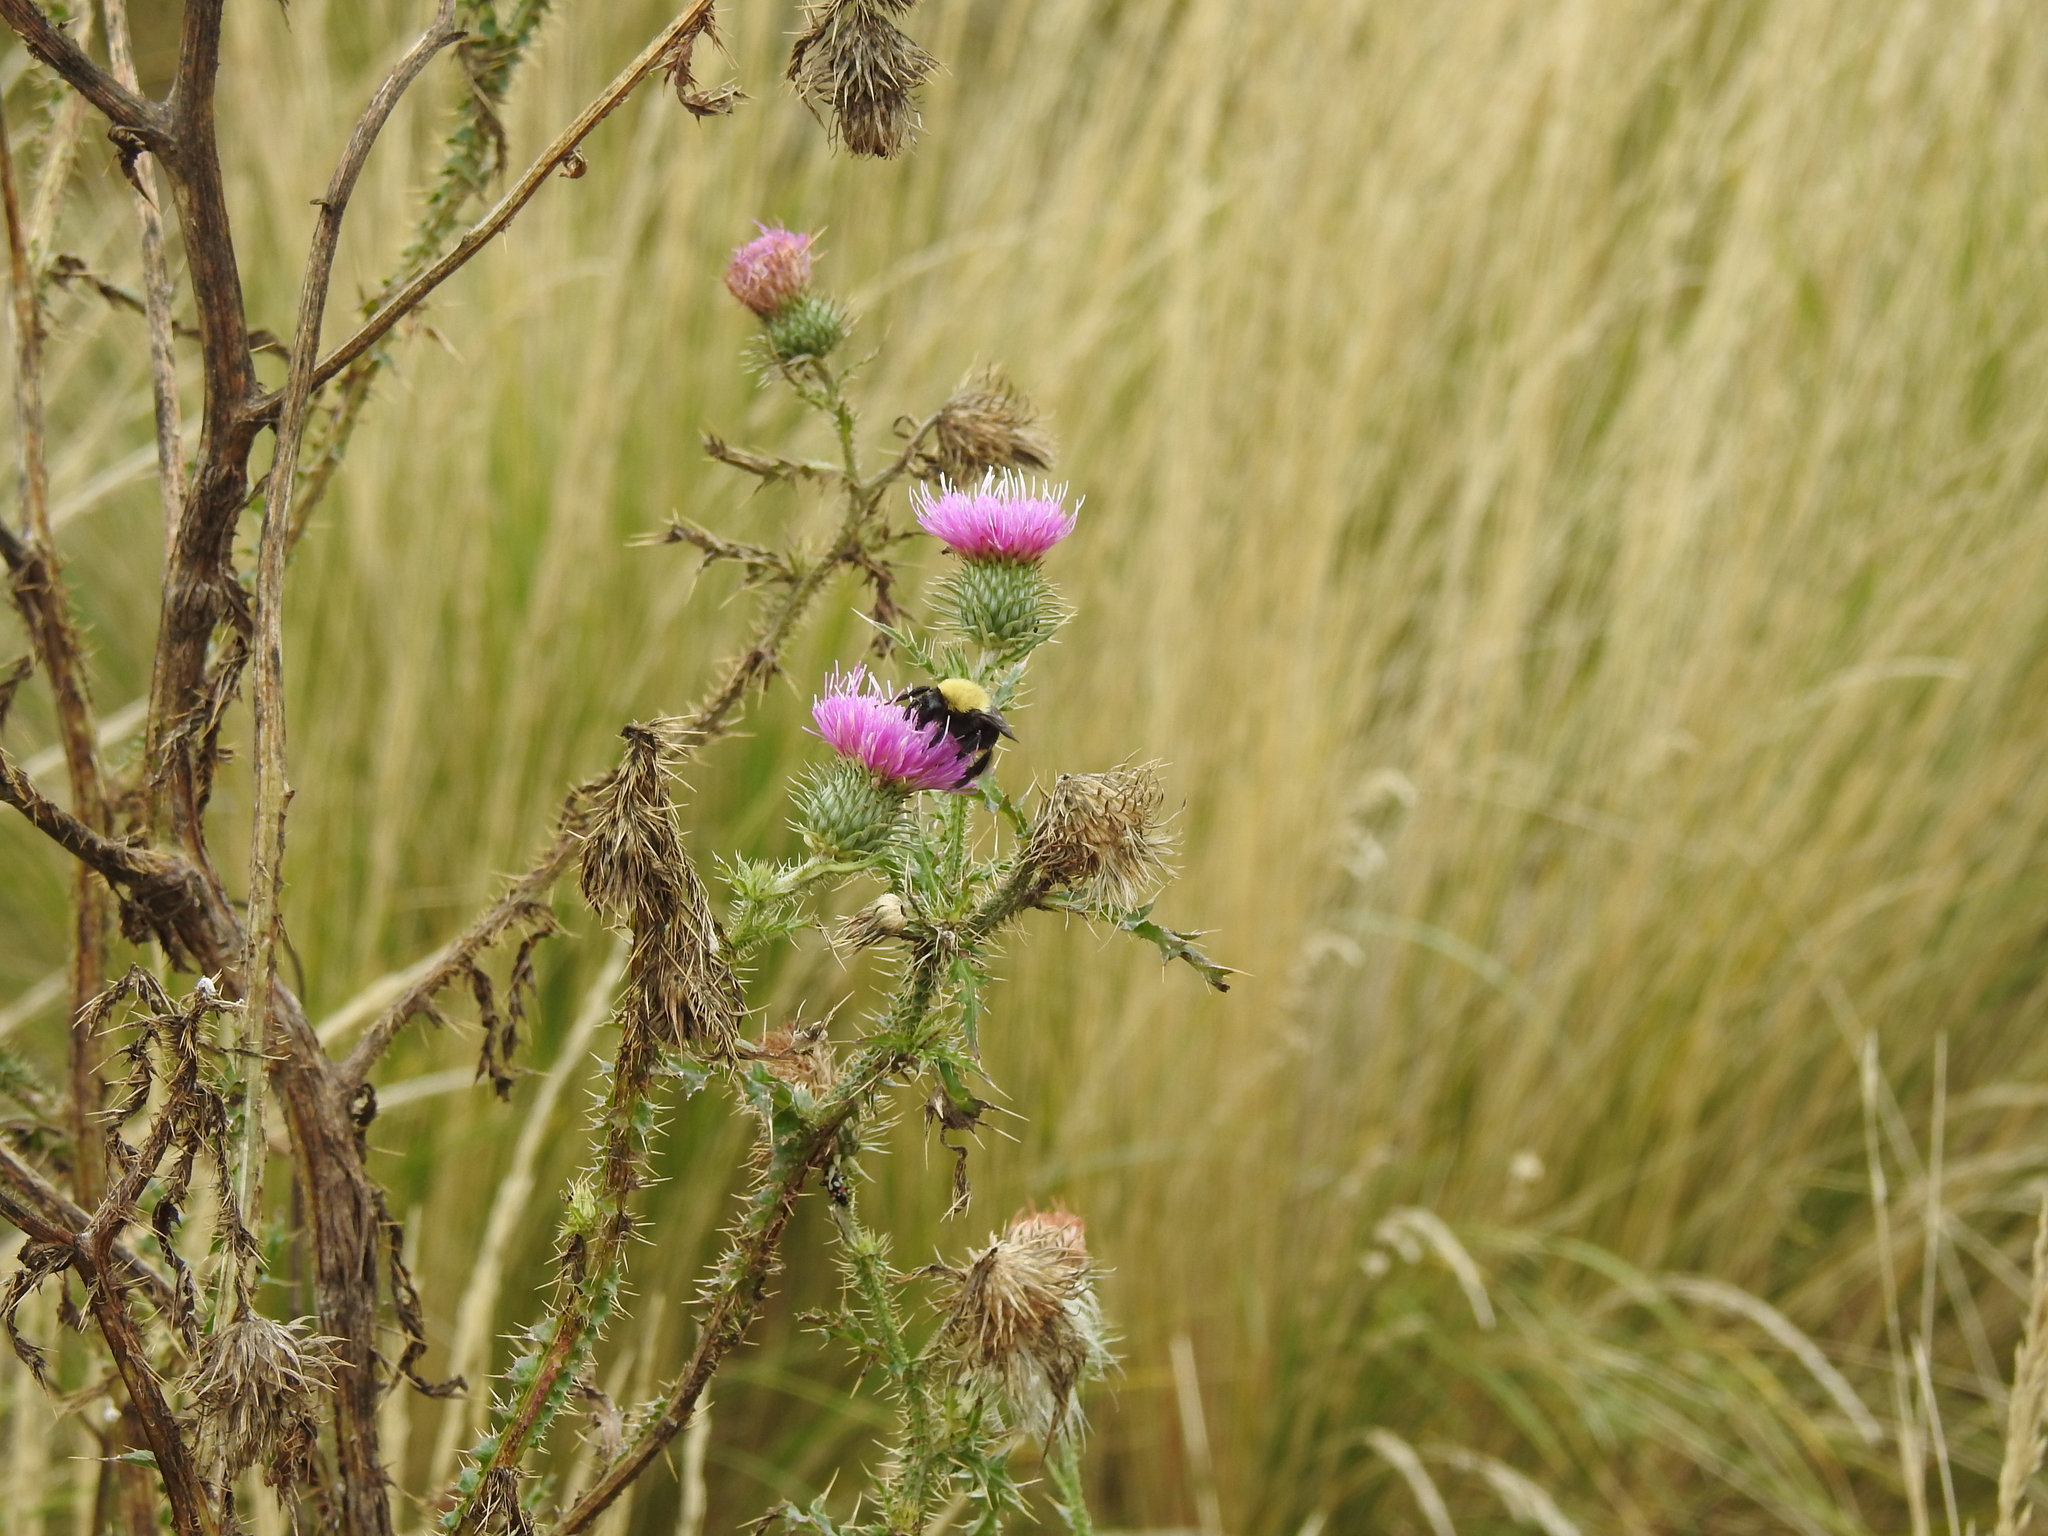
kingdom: Animalia
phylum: Arthropoda
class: Insecta
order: Hymenoptera
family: Apidae
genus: Bombus
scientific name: Bombus bellicosus
